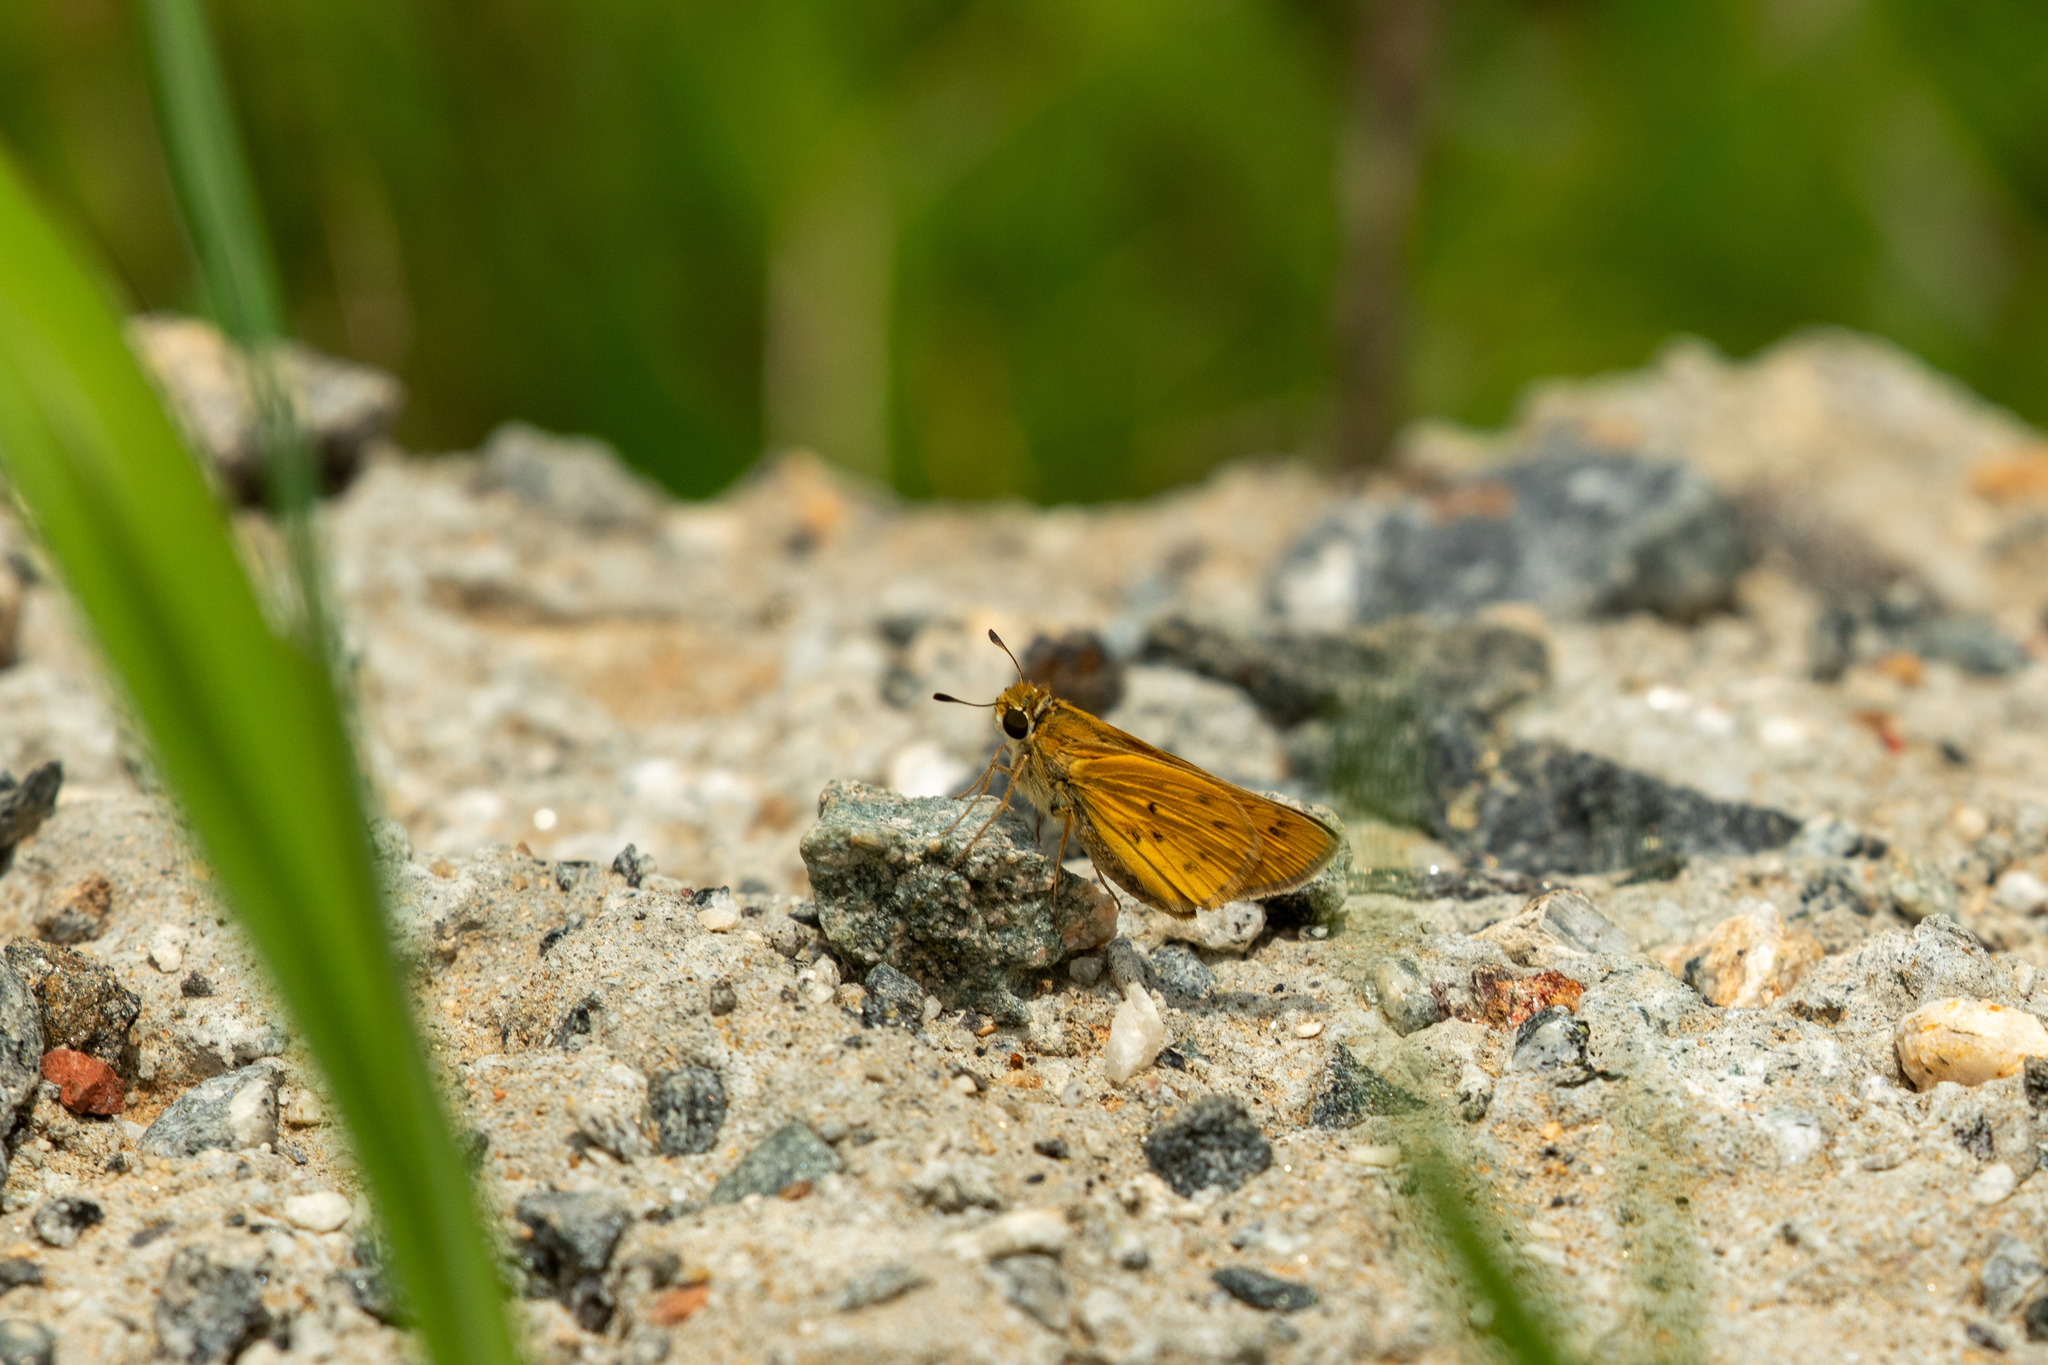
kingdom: Animalia
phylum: Arthropoda
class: Insecta
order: Lepidoptera
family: Hesperiidae
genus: Hylephila
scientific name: Hylephila phyleus
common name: Fiery skipper
